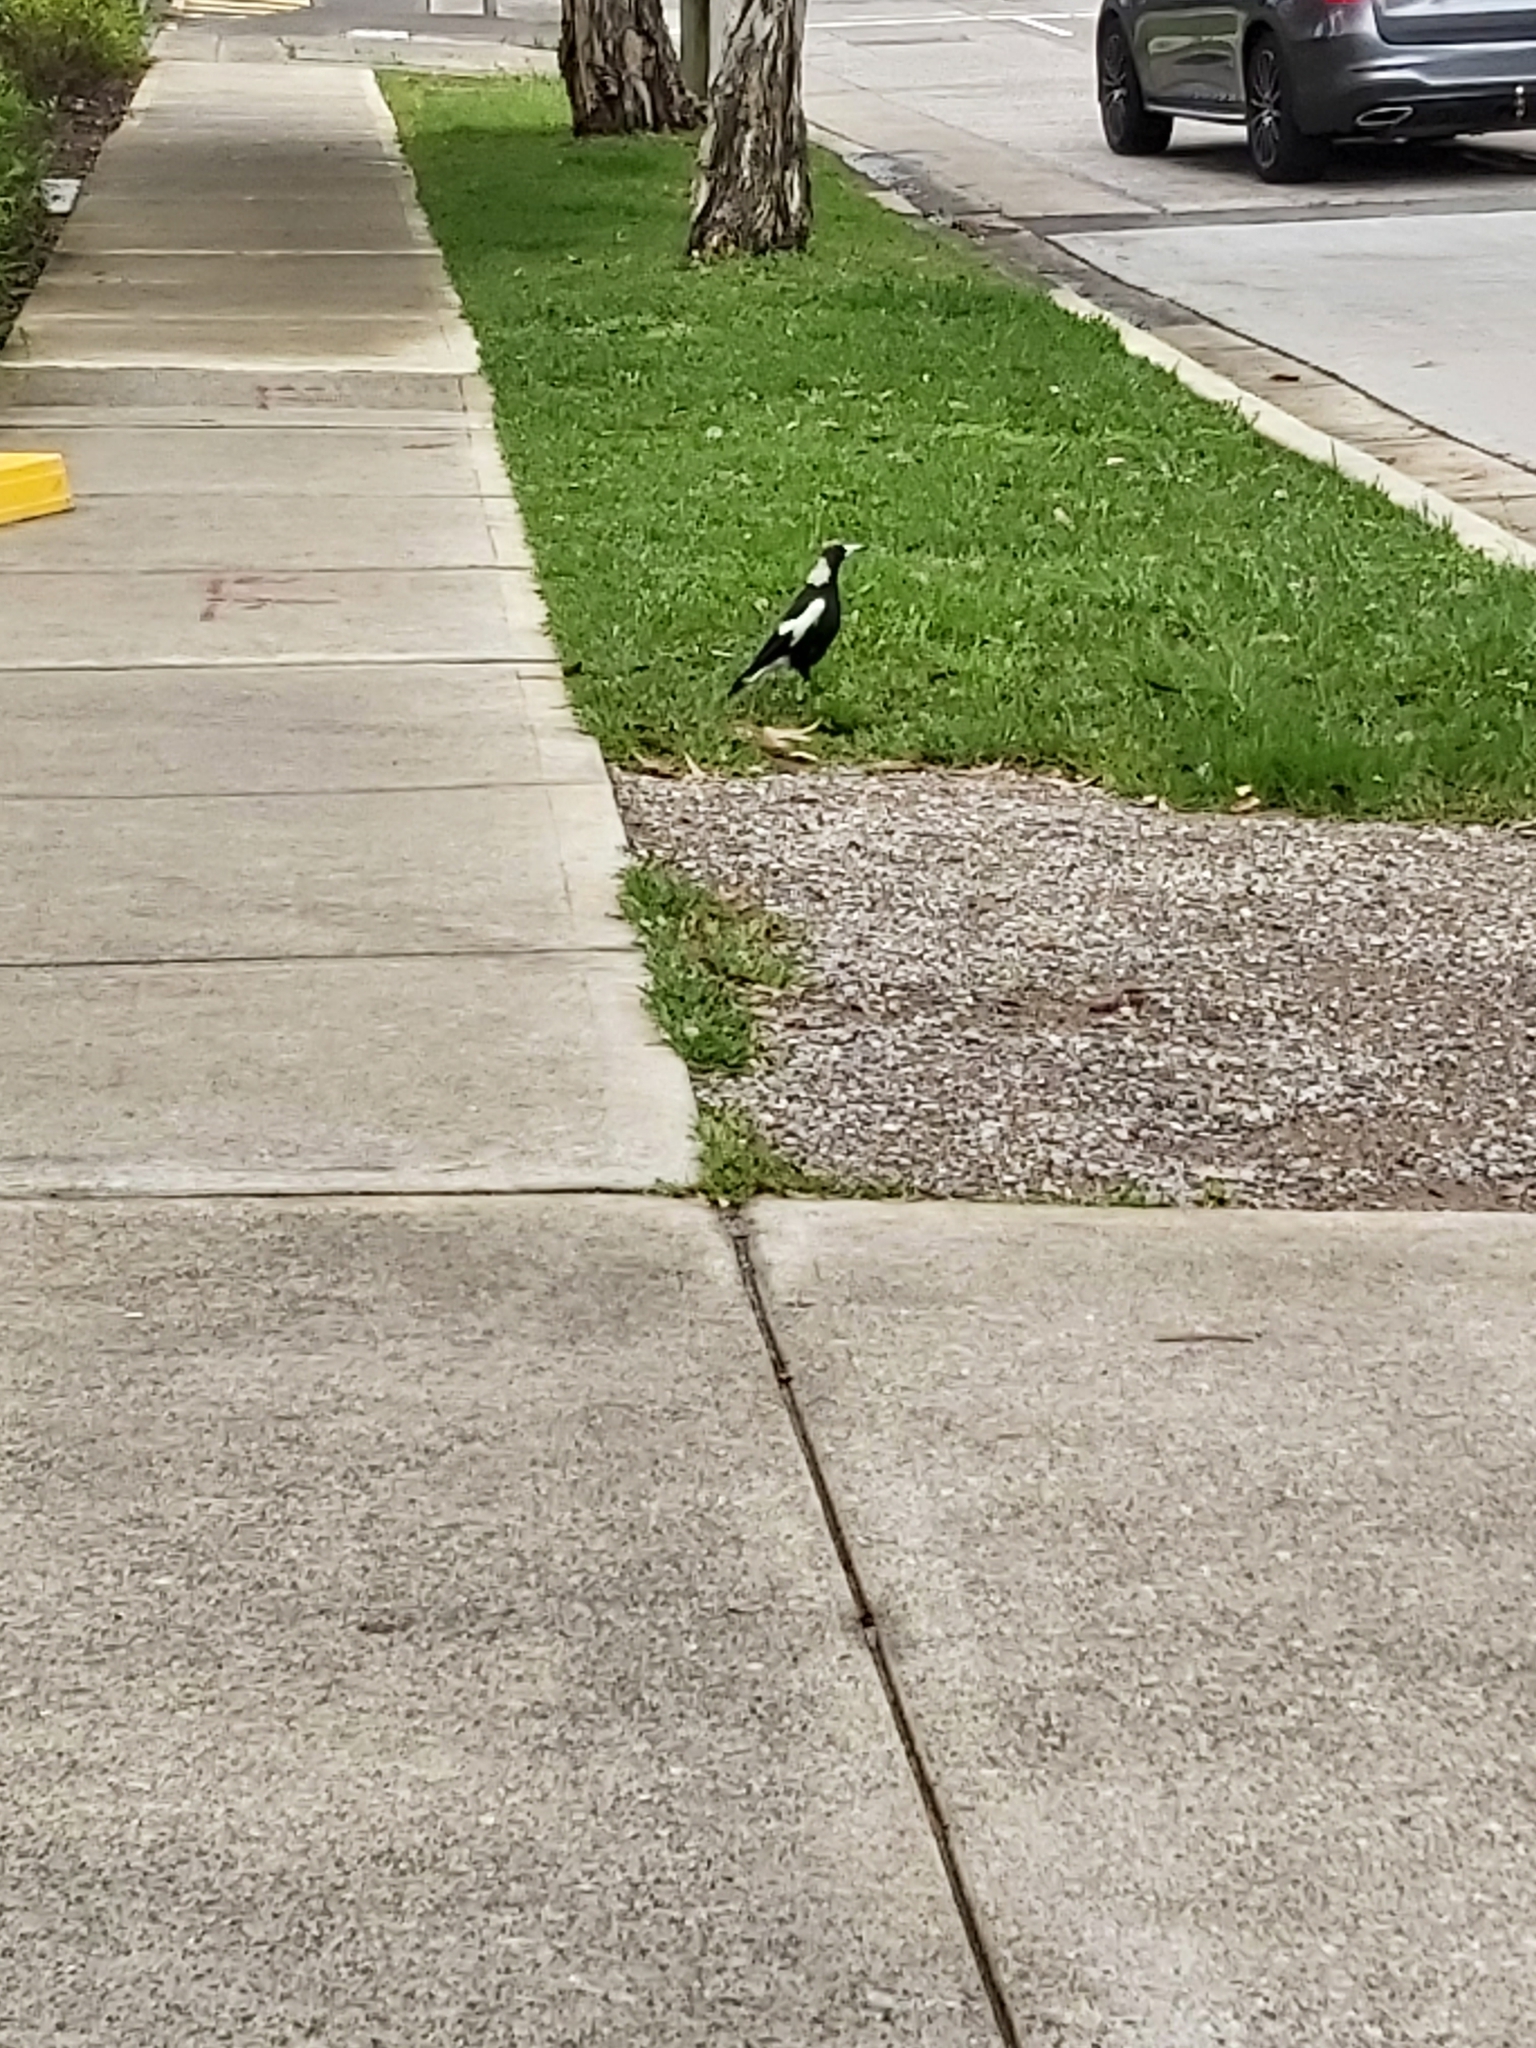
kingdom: Animalia
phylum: Chordata
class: Aves
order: Passeriformes
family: Cracticidae
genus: Gymnorhina
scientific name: Gymnorhina tibicen
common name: Australian magpie
